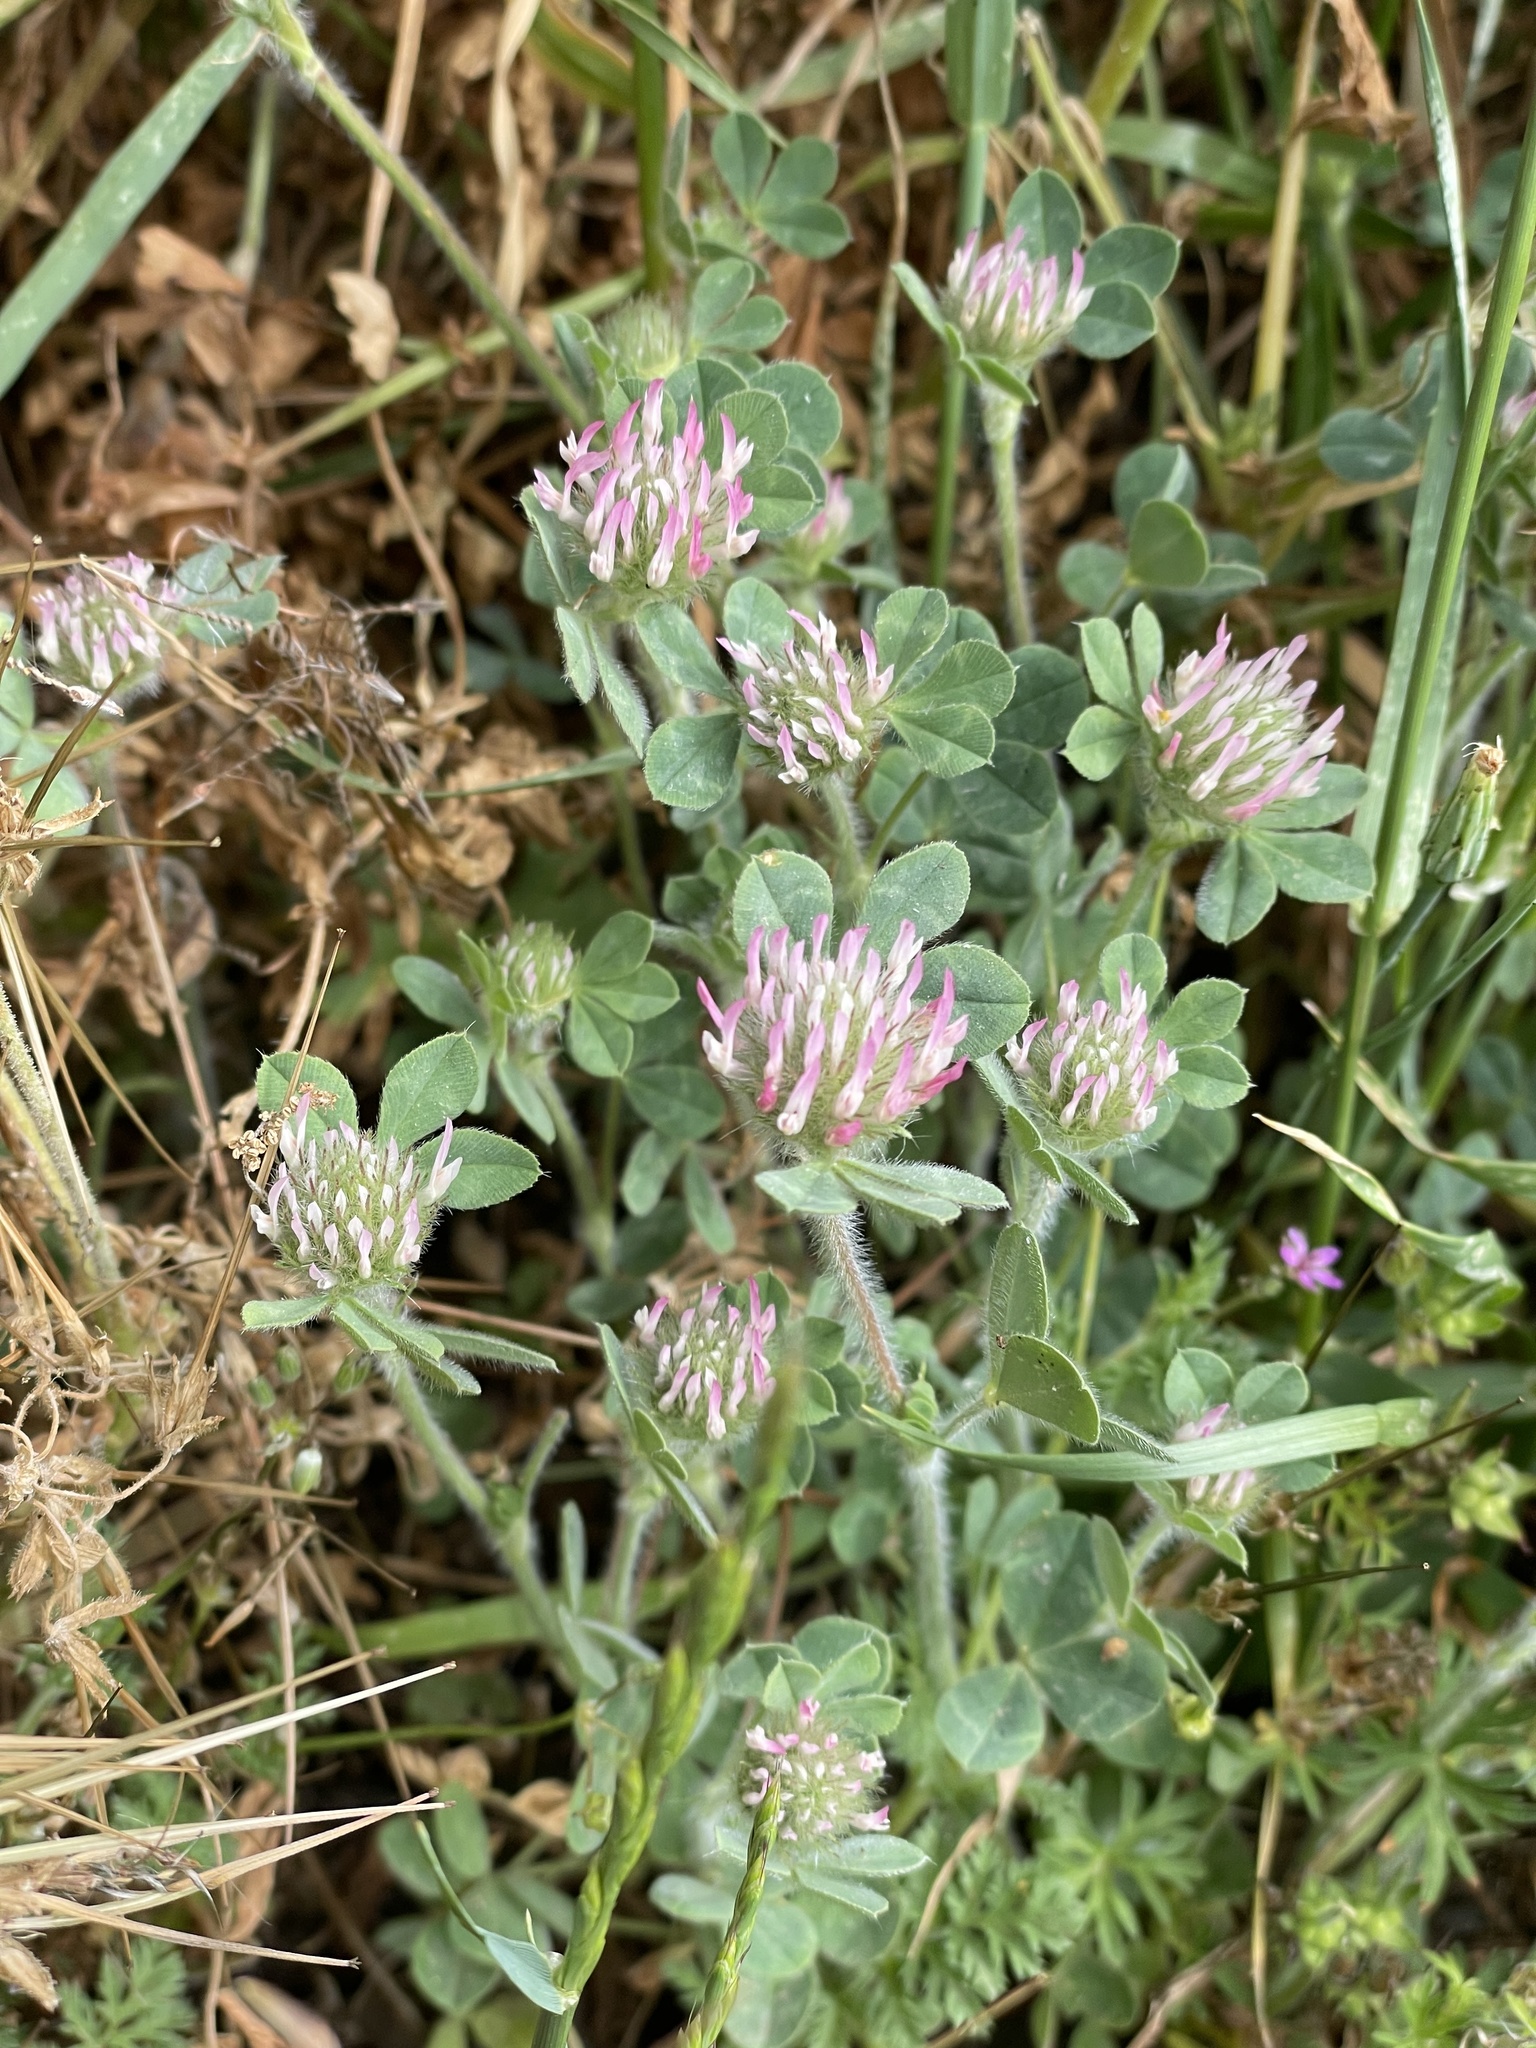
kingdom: Plantae
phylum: Tracheophyta
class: Magnoliopsida
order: Fabales
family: Fabaceae
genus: Trifolium
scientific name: Trifolium hirtum
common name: Rose clover
